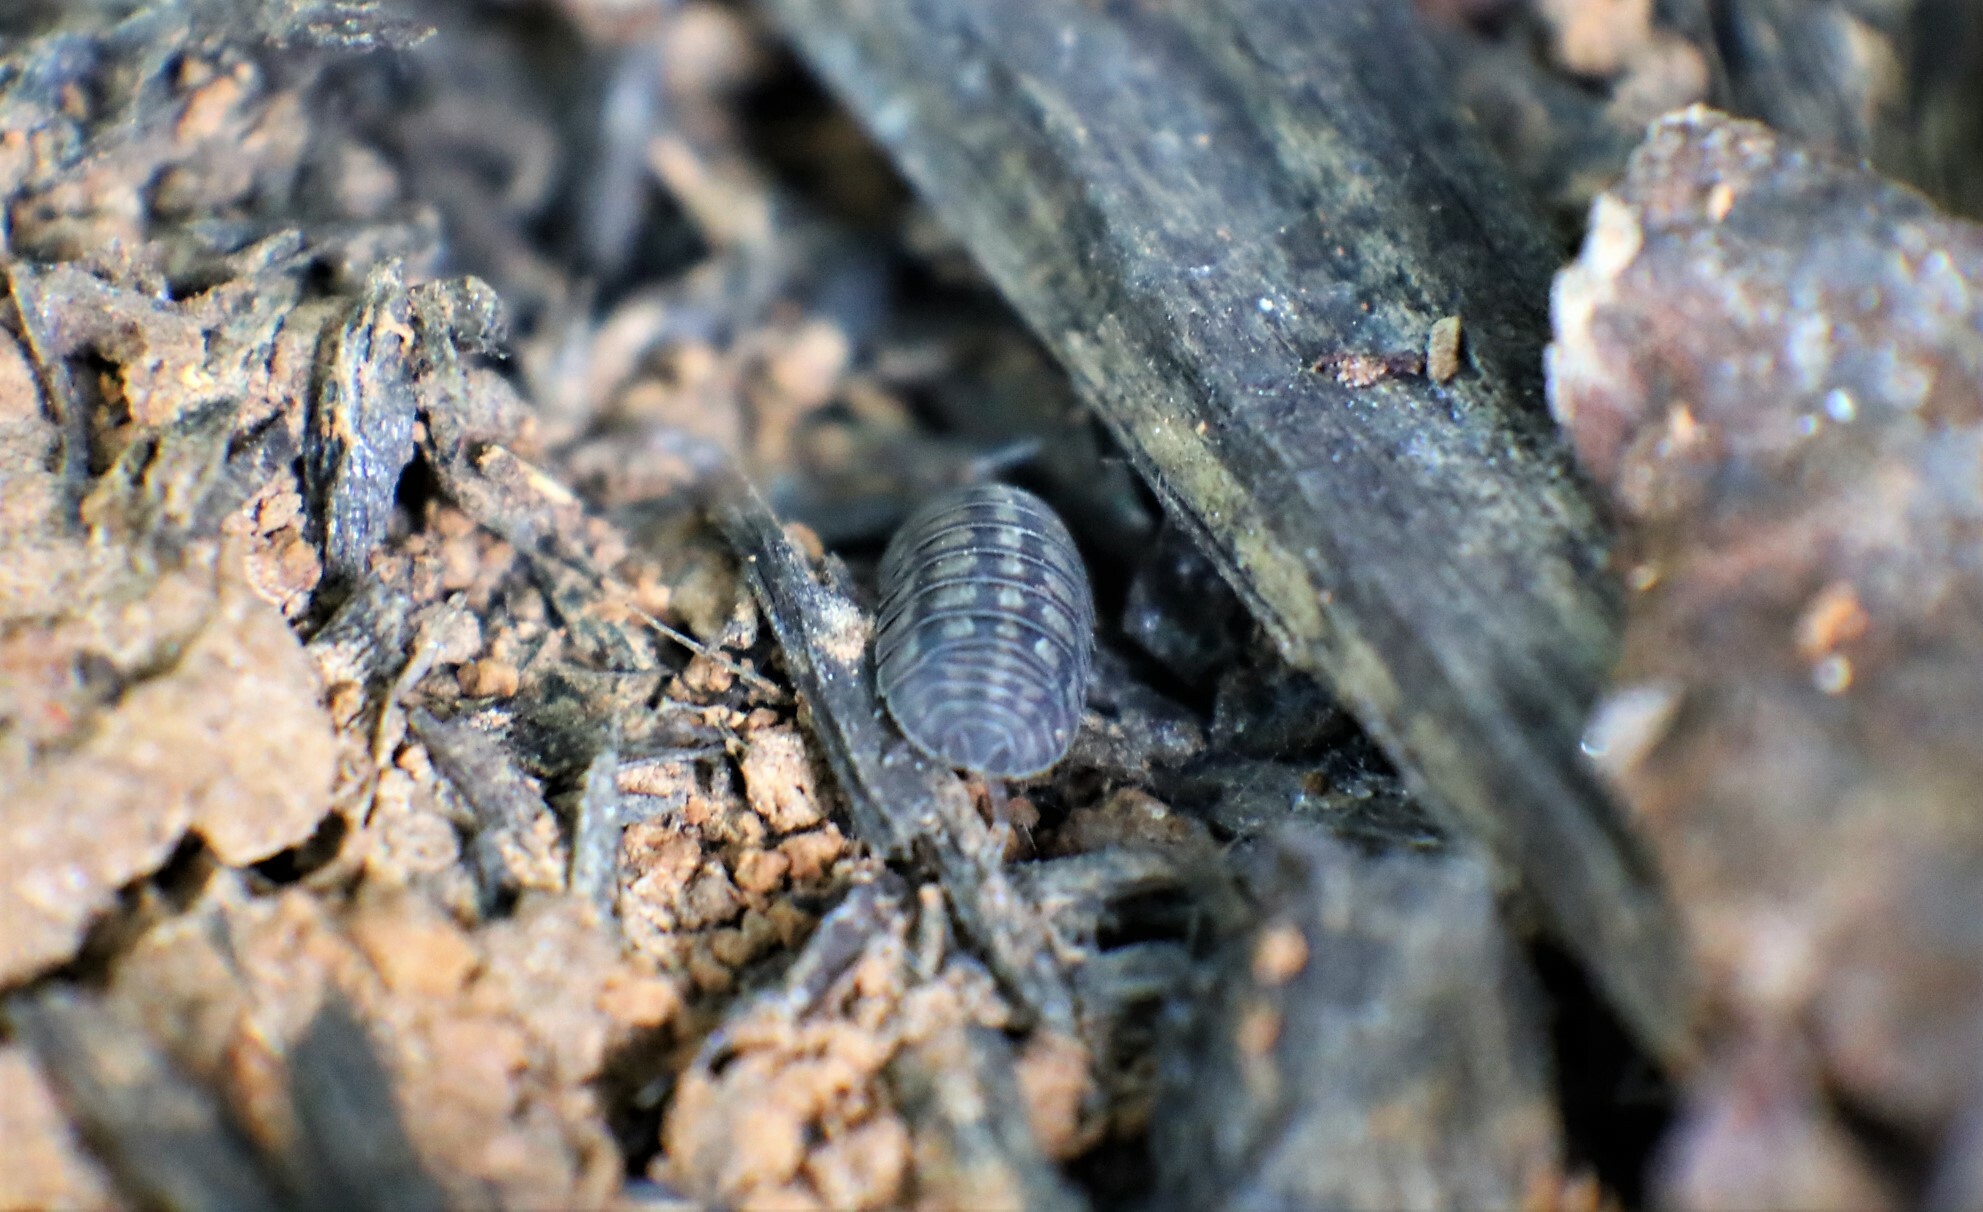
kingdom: Animalia
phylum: Arthropoda
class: Malacostraca
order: Isopoda
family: Armadillidiidae
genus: Armadillidium
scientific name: Armadillidium nasatum
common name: Isopod
